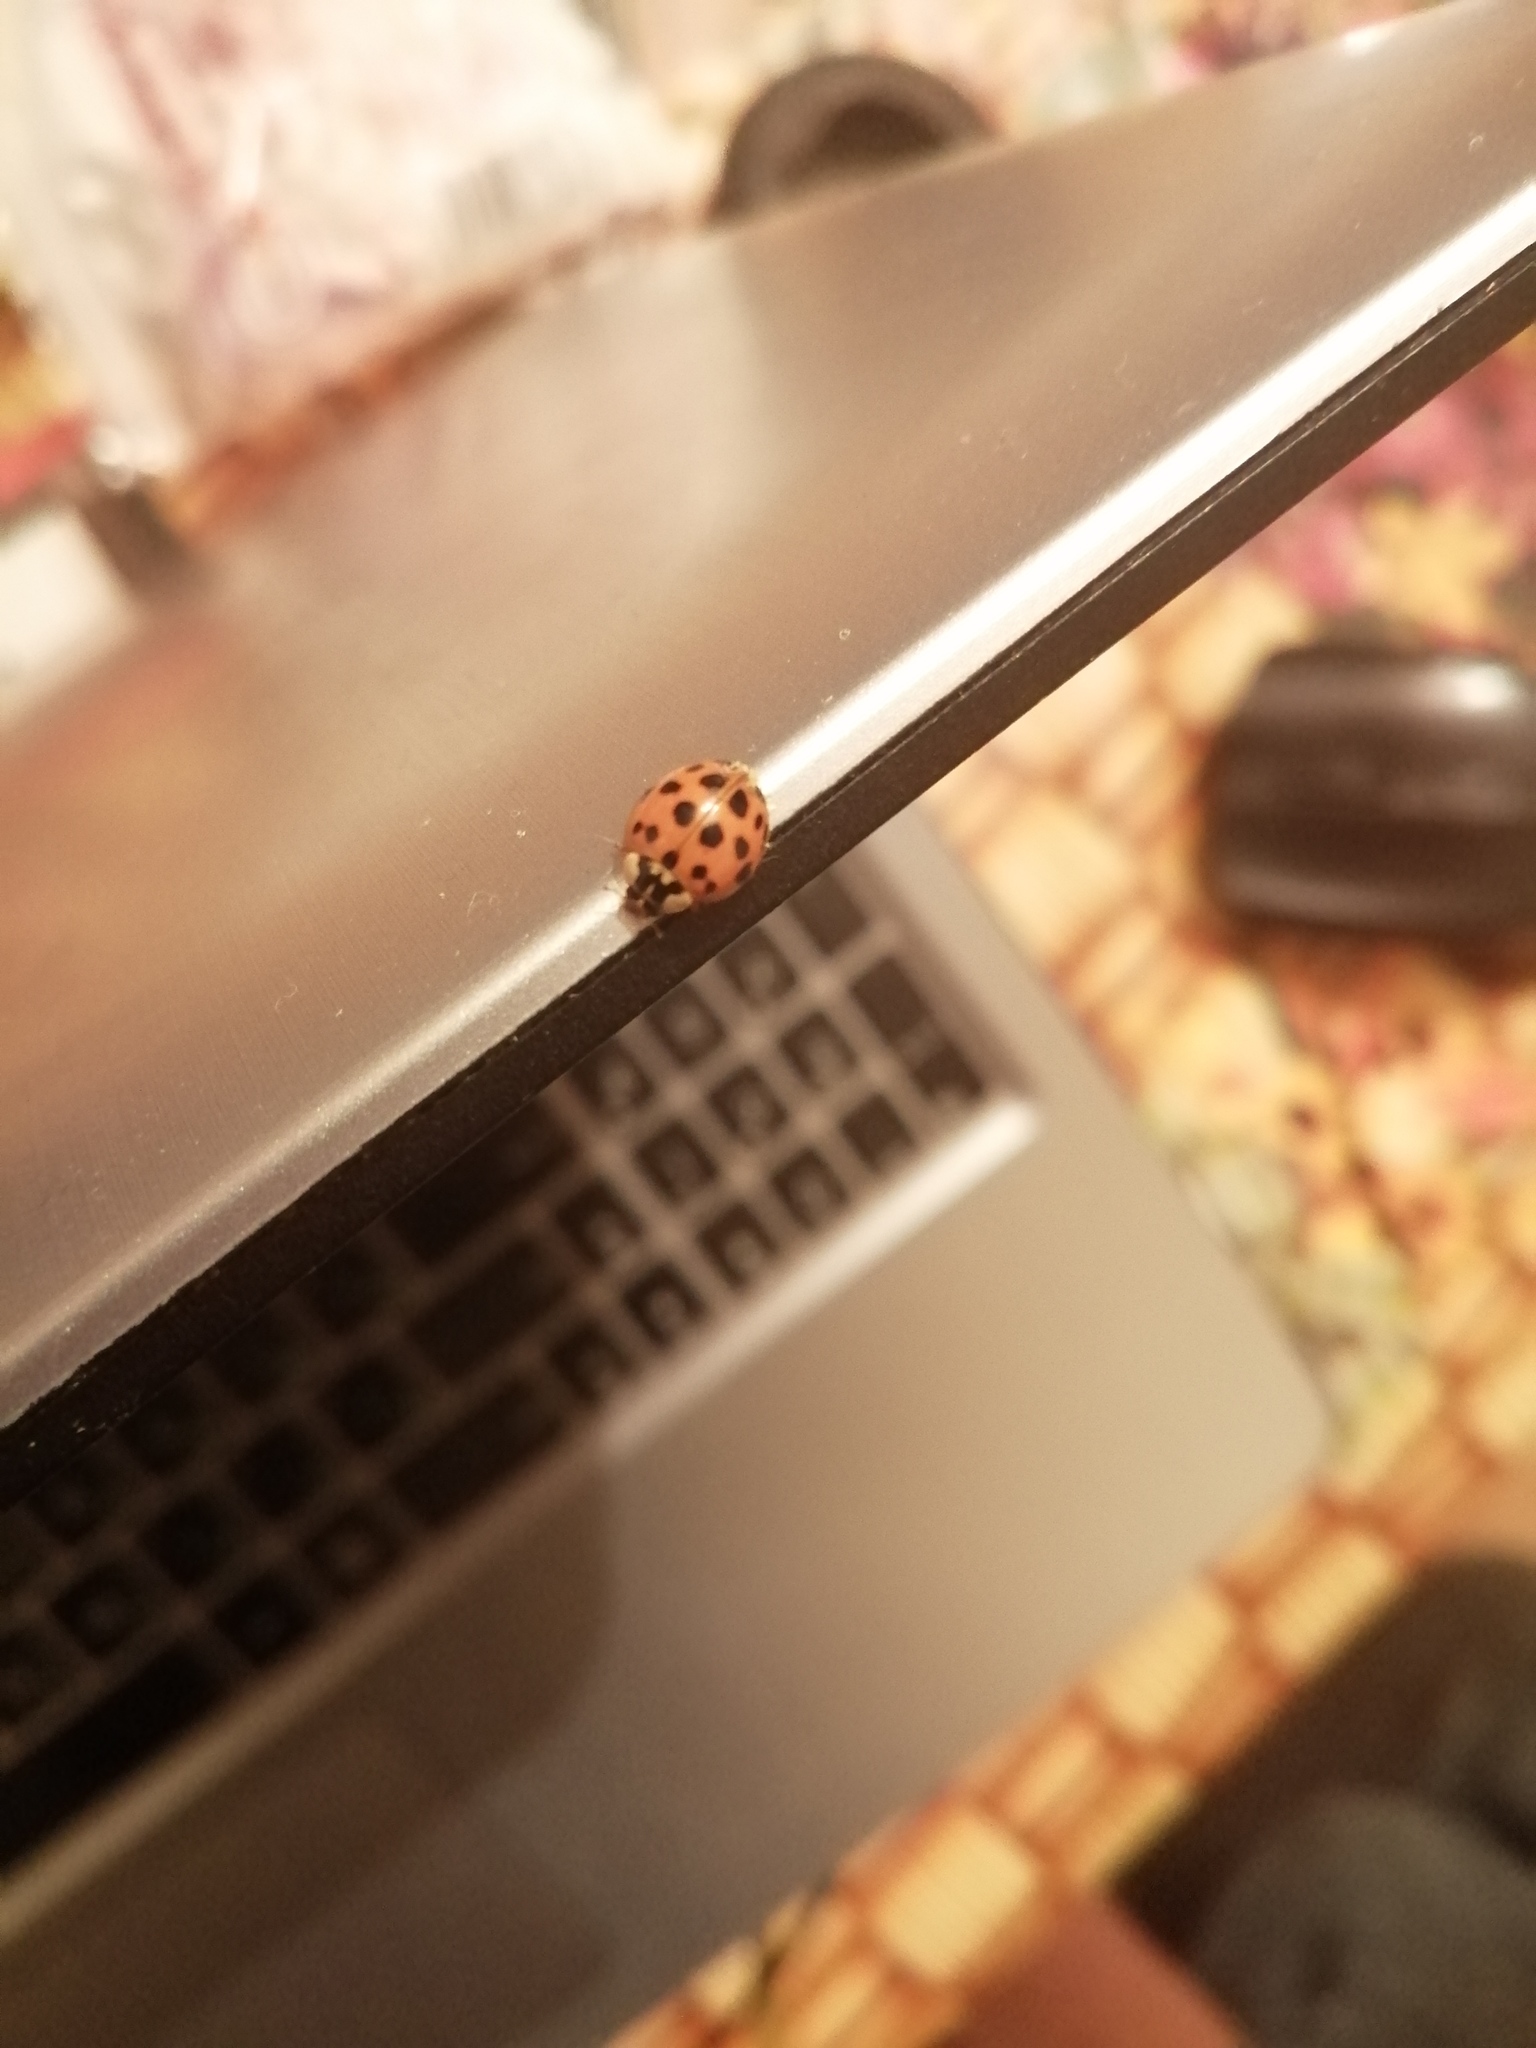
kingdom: Animalia
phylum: Arthropoda
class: Insecta
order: Coleoptera
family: Coccinellidae
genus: Harmonia
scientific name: Harmonia axyridis
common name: Harlequin ladybird
